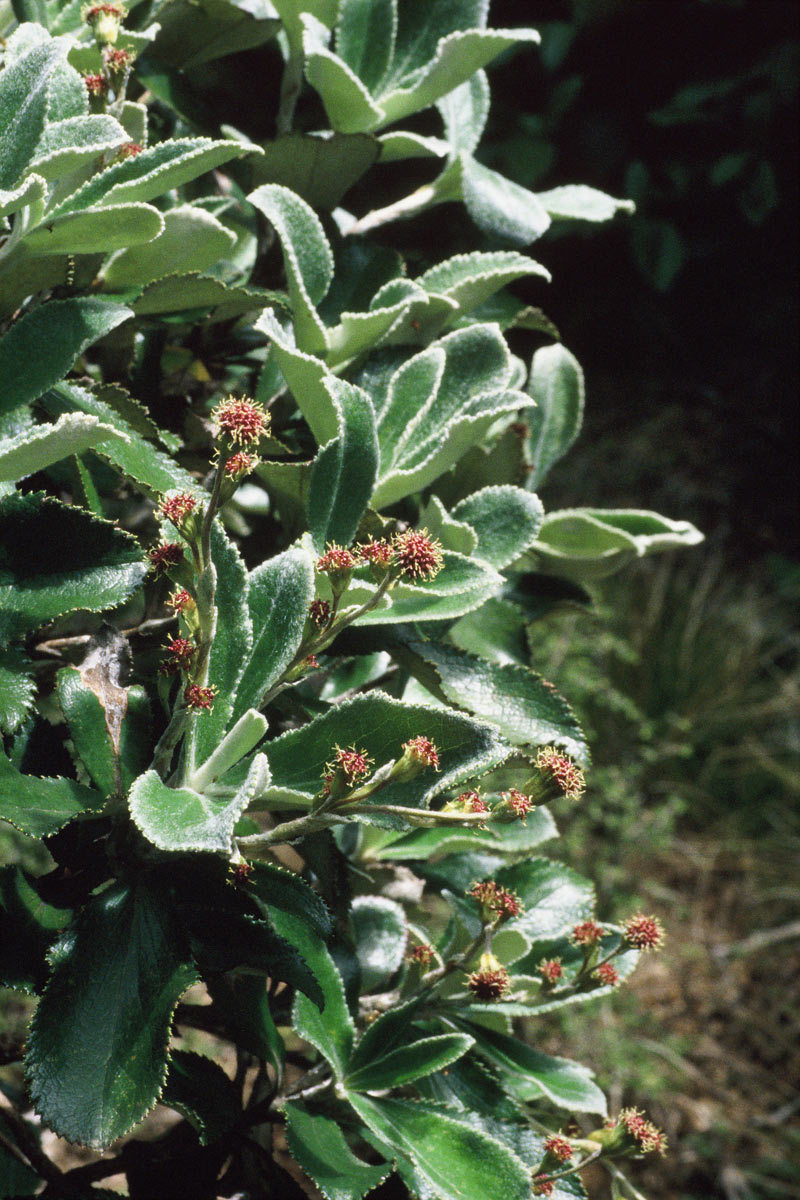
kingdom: Plantae
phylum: Tracheophyta
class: Magnoliopsida
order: Asterales
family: Asteraceae
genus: Macrolearia
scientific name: Macrolearia colensoi
